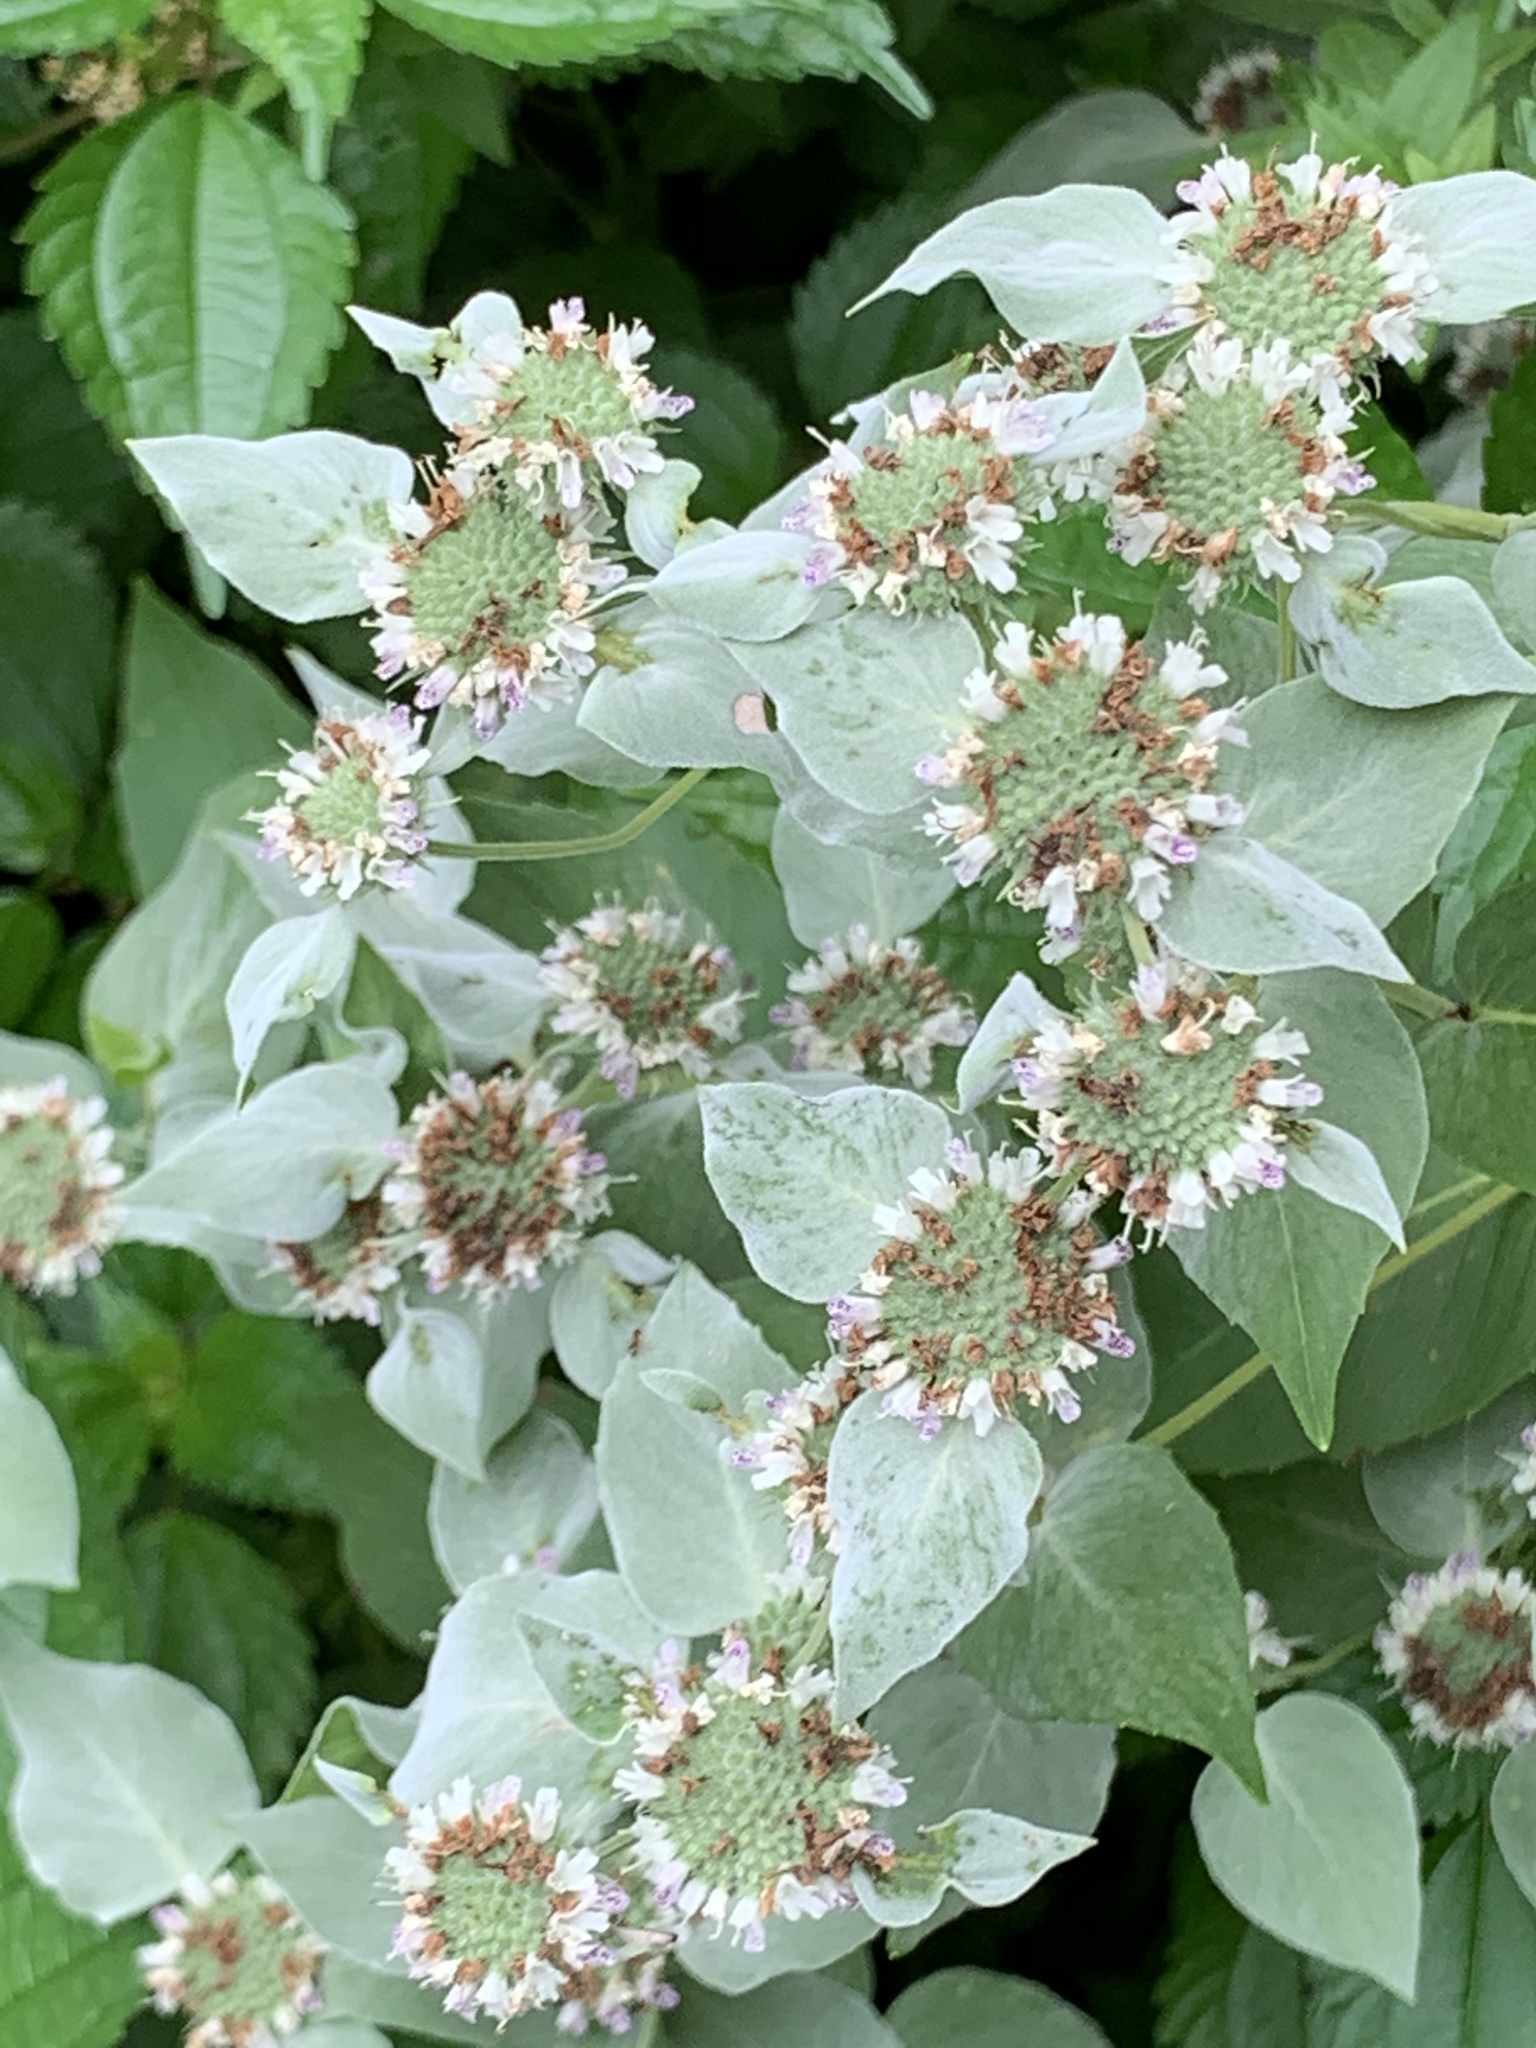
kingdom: Plantae
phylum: Tracheophyta
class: Magnoliopsida
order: Lamiales
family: Lamiaceae
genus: Pycnanthemum
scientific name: Pycnanthemum muticum
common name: Blunt mountain-mint
